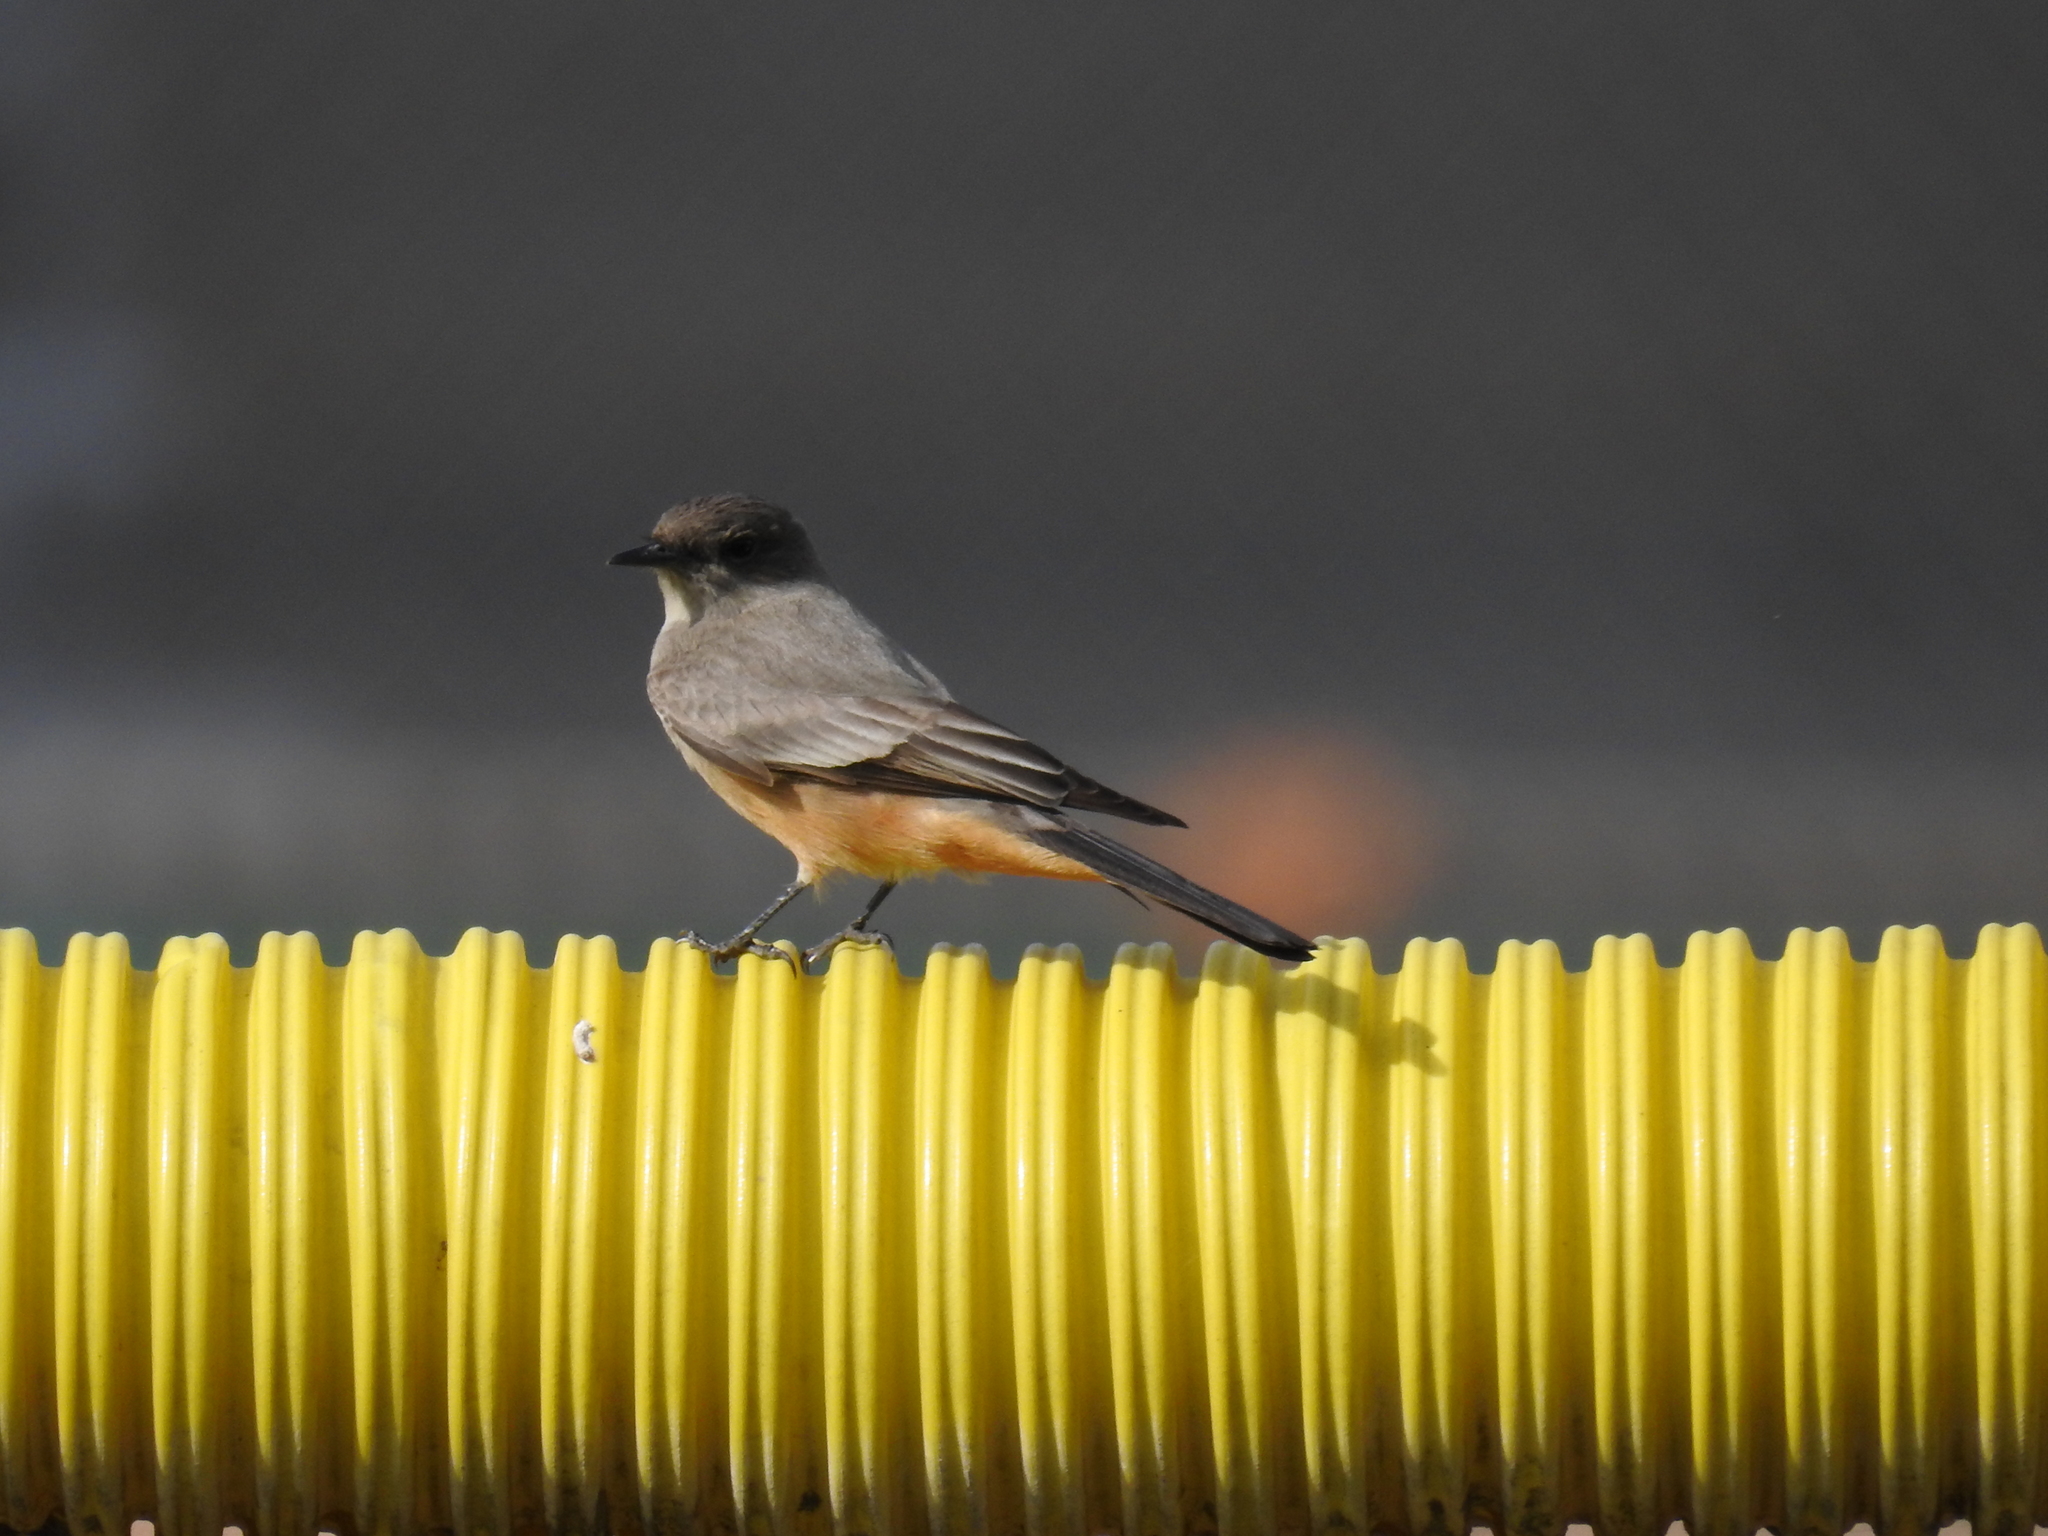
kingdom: Animalia
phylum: Chordata
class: Aves
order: Passeriformes
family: Tyrannidae
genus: Sayornis
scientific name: Sayornis saya
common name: Say's phoebe
